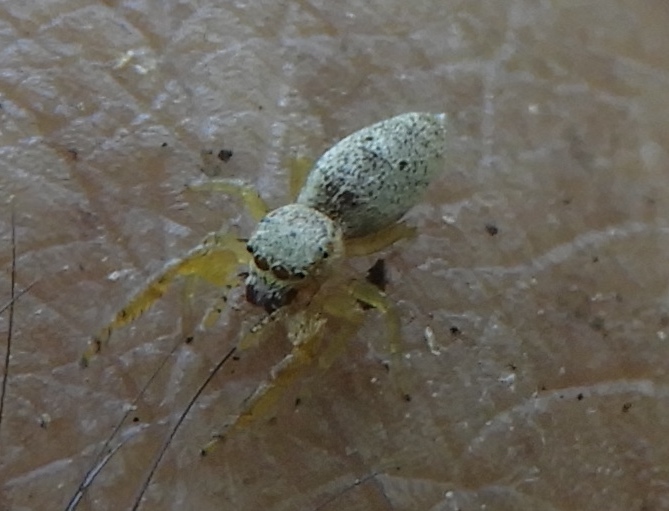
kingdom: Animalia
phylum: Arthropoda
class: Arachnida
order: Araneae
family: Salticidae
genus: Hentzia
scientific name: Hentzia
